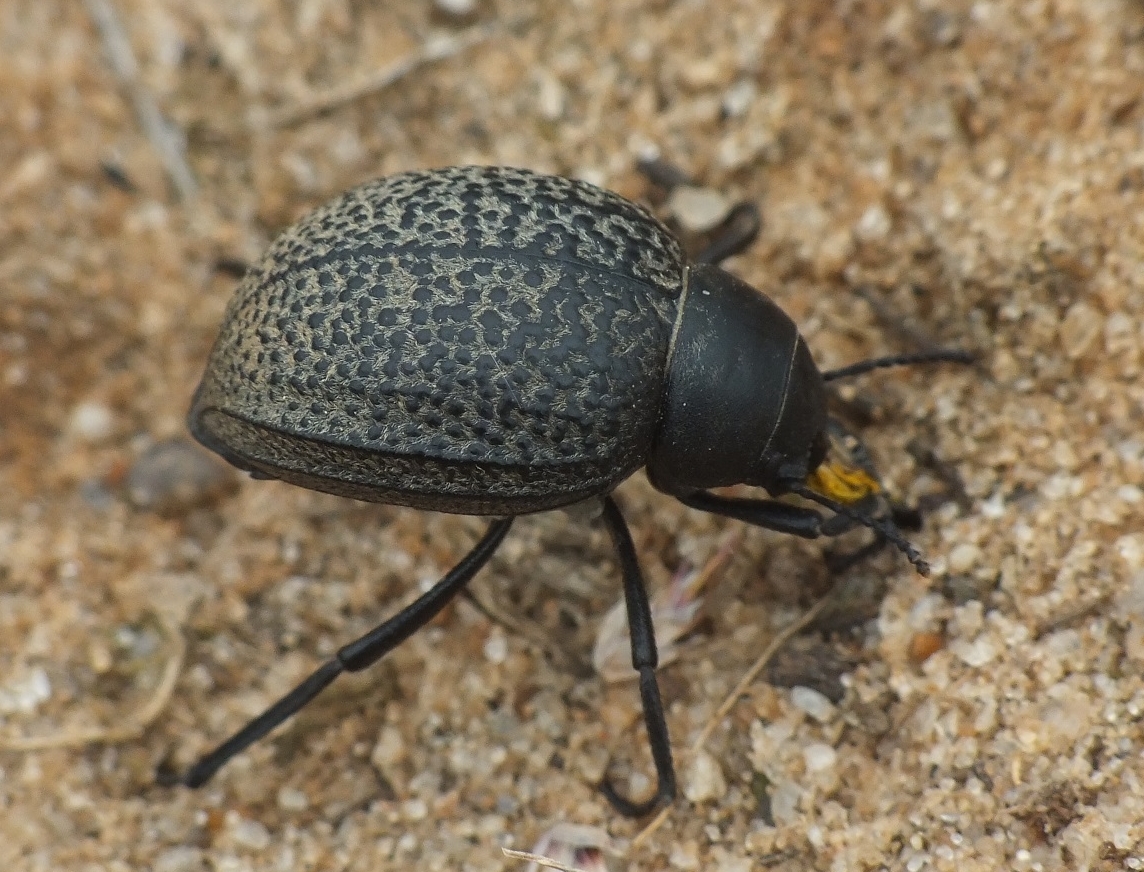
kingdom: Animalia
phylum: Arthropoda
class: Insecta
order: Coleoptera
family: Tenebrionidae
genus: Pimelia
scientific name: Pimelia subglobosa
